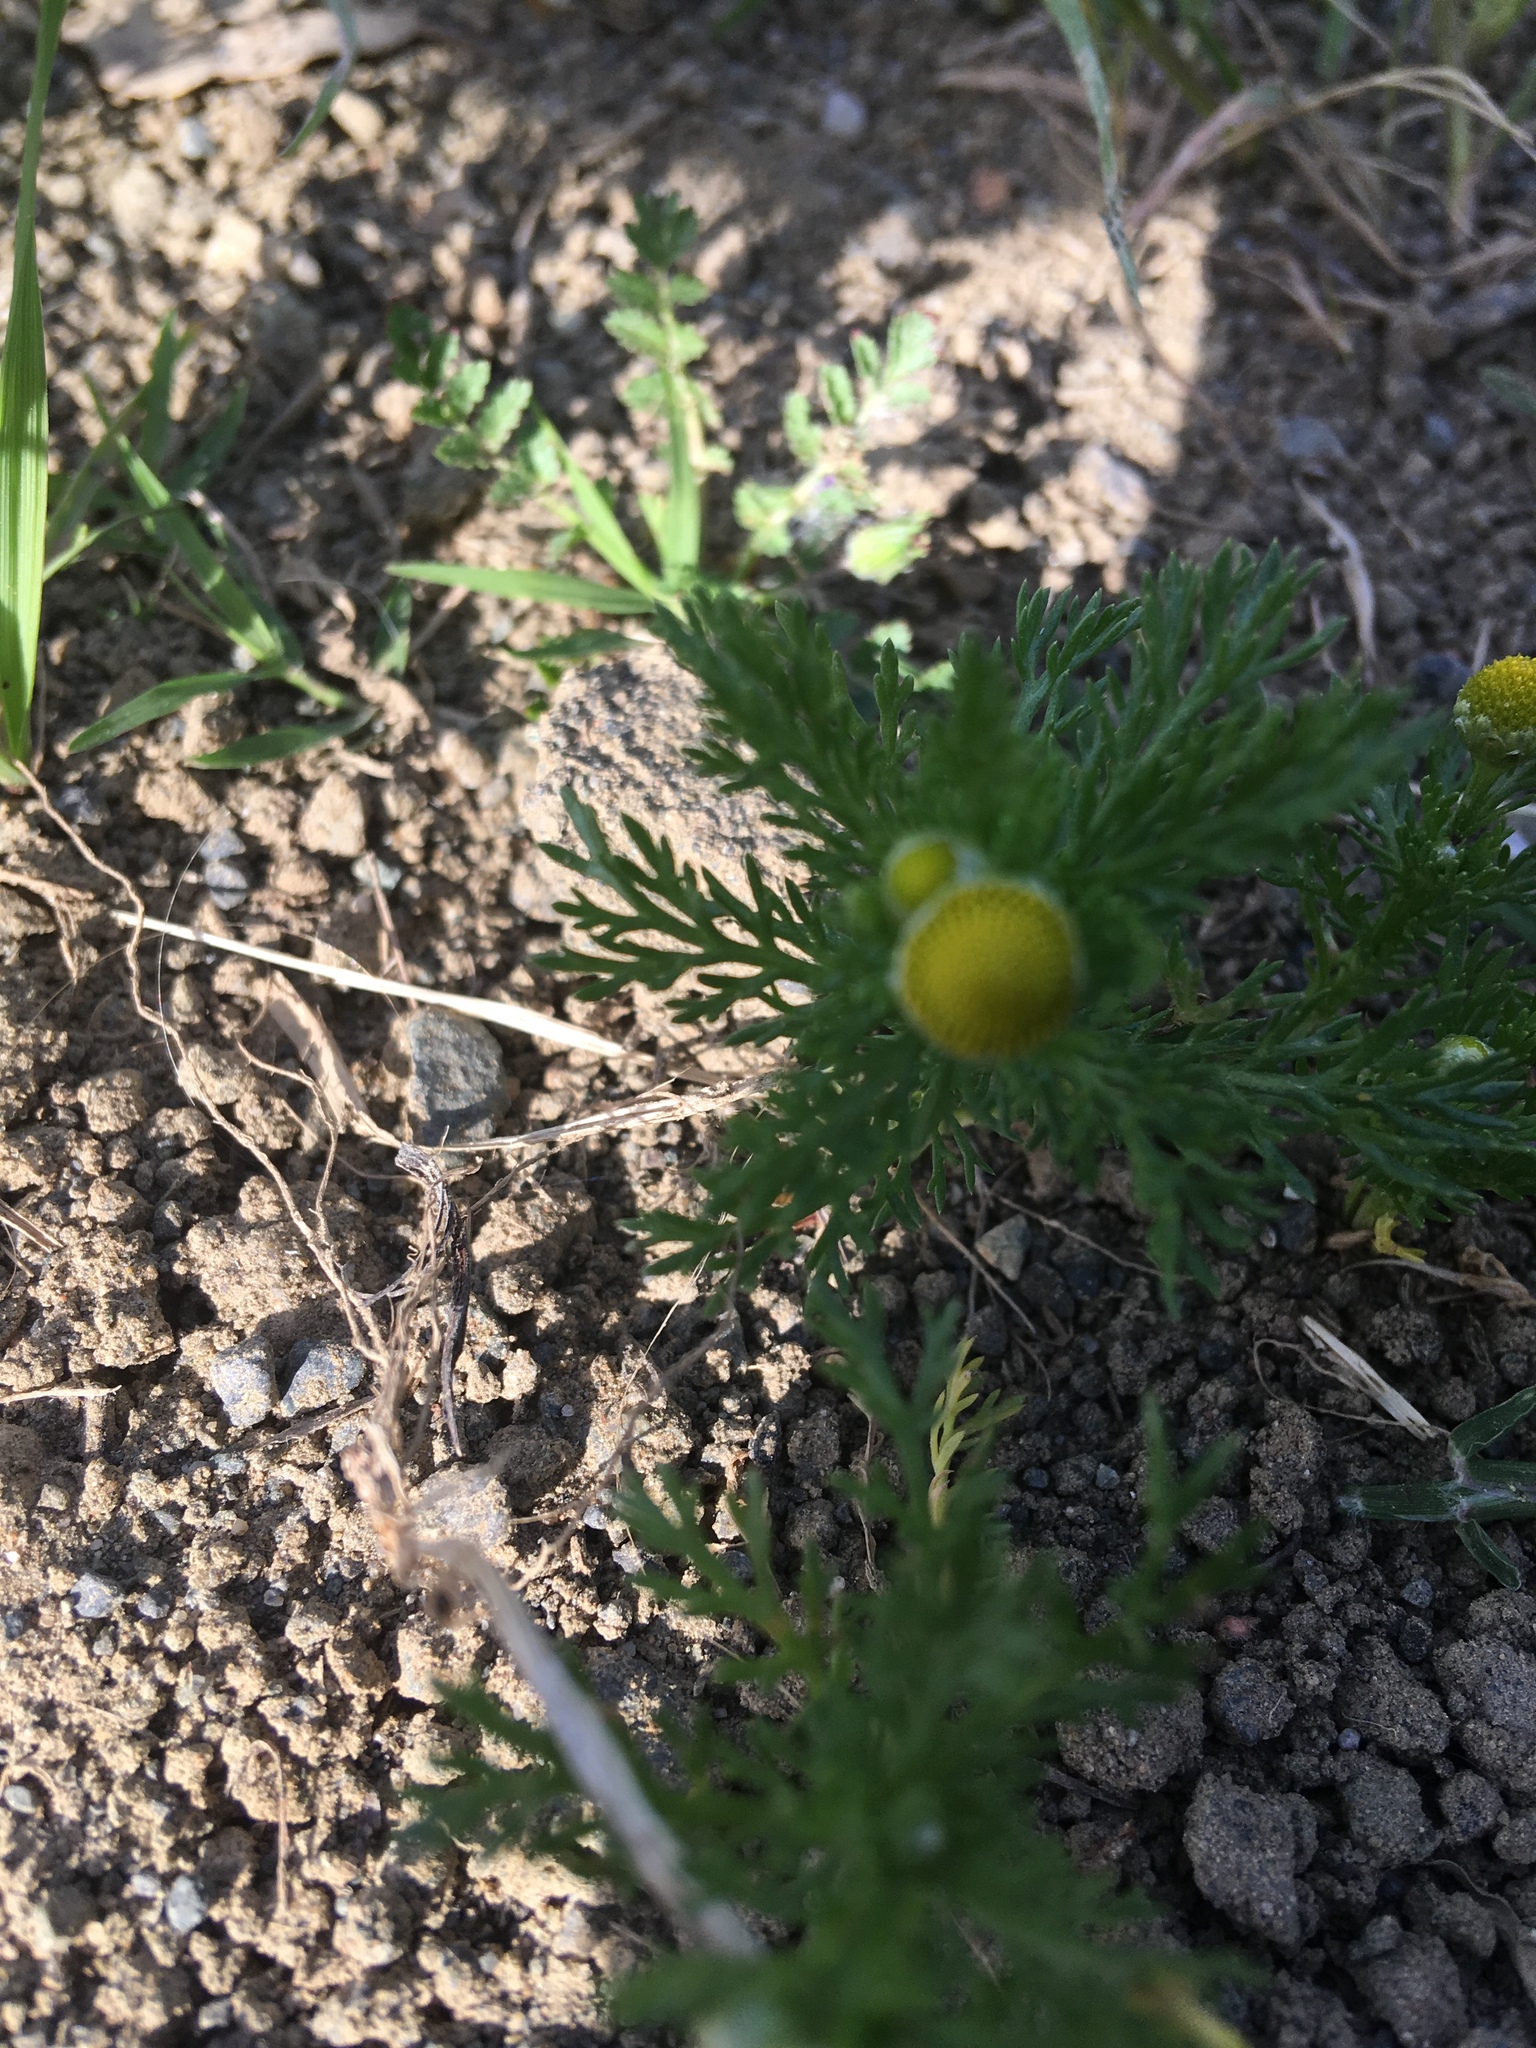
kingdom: Plantae
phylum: Tracheophyta
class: Magnoliopsida
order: Asterales
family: Asteraceae
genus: Matricaria
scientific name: Matricaria discoidea
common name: Disc mayweed
